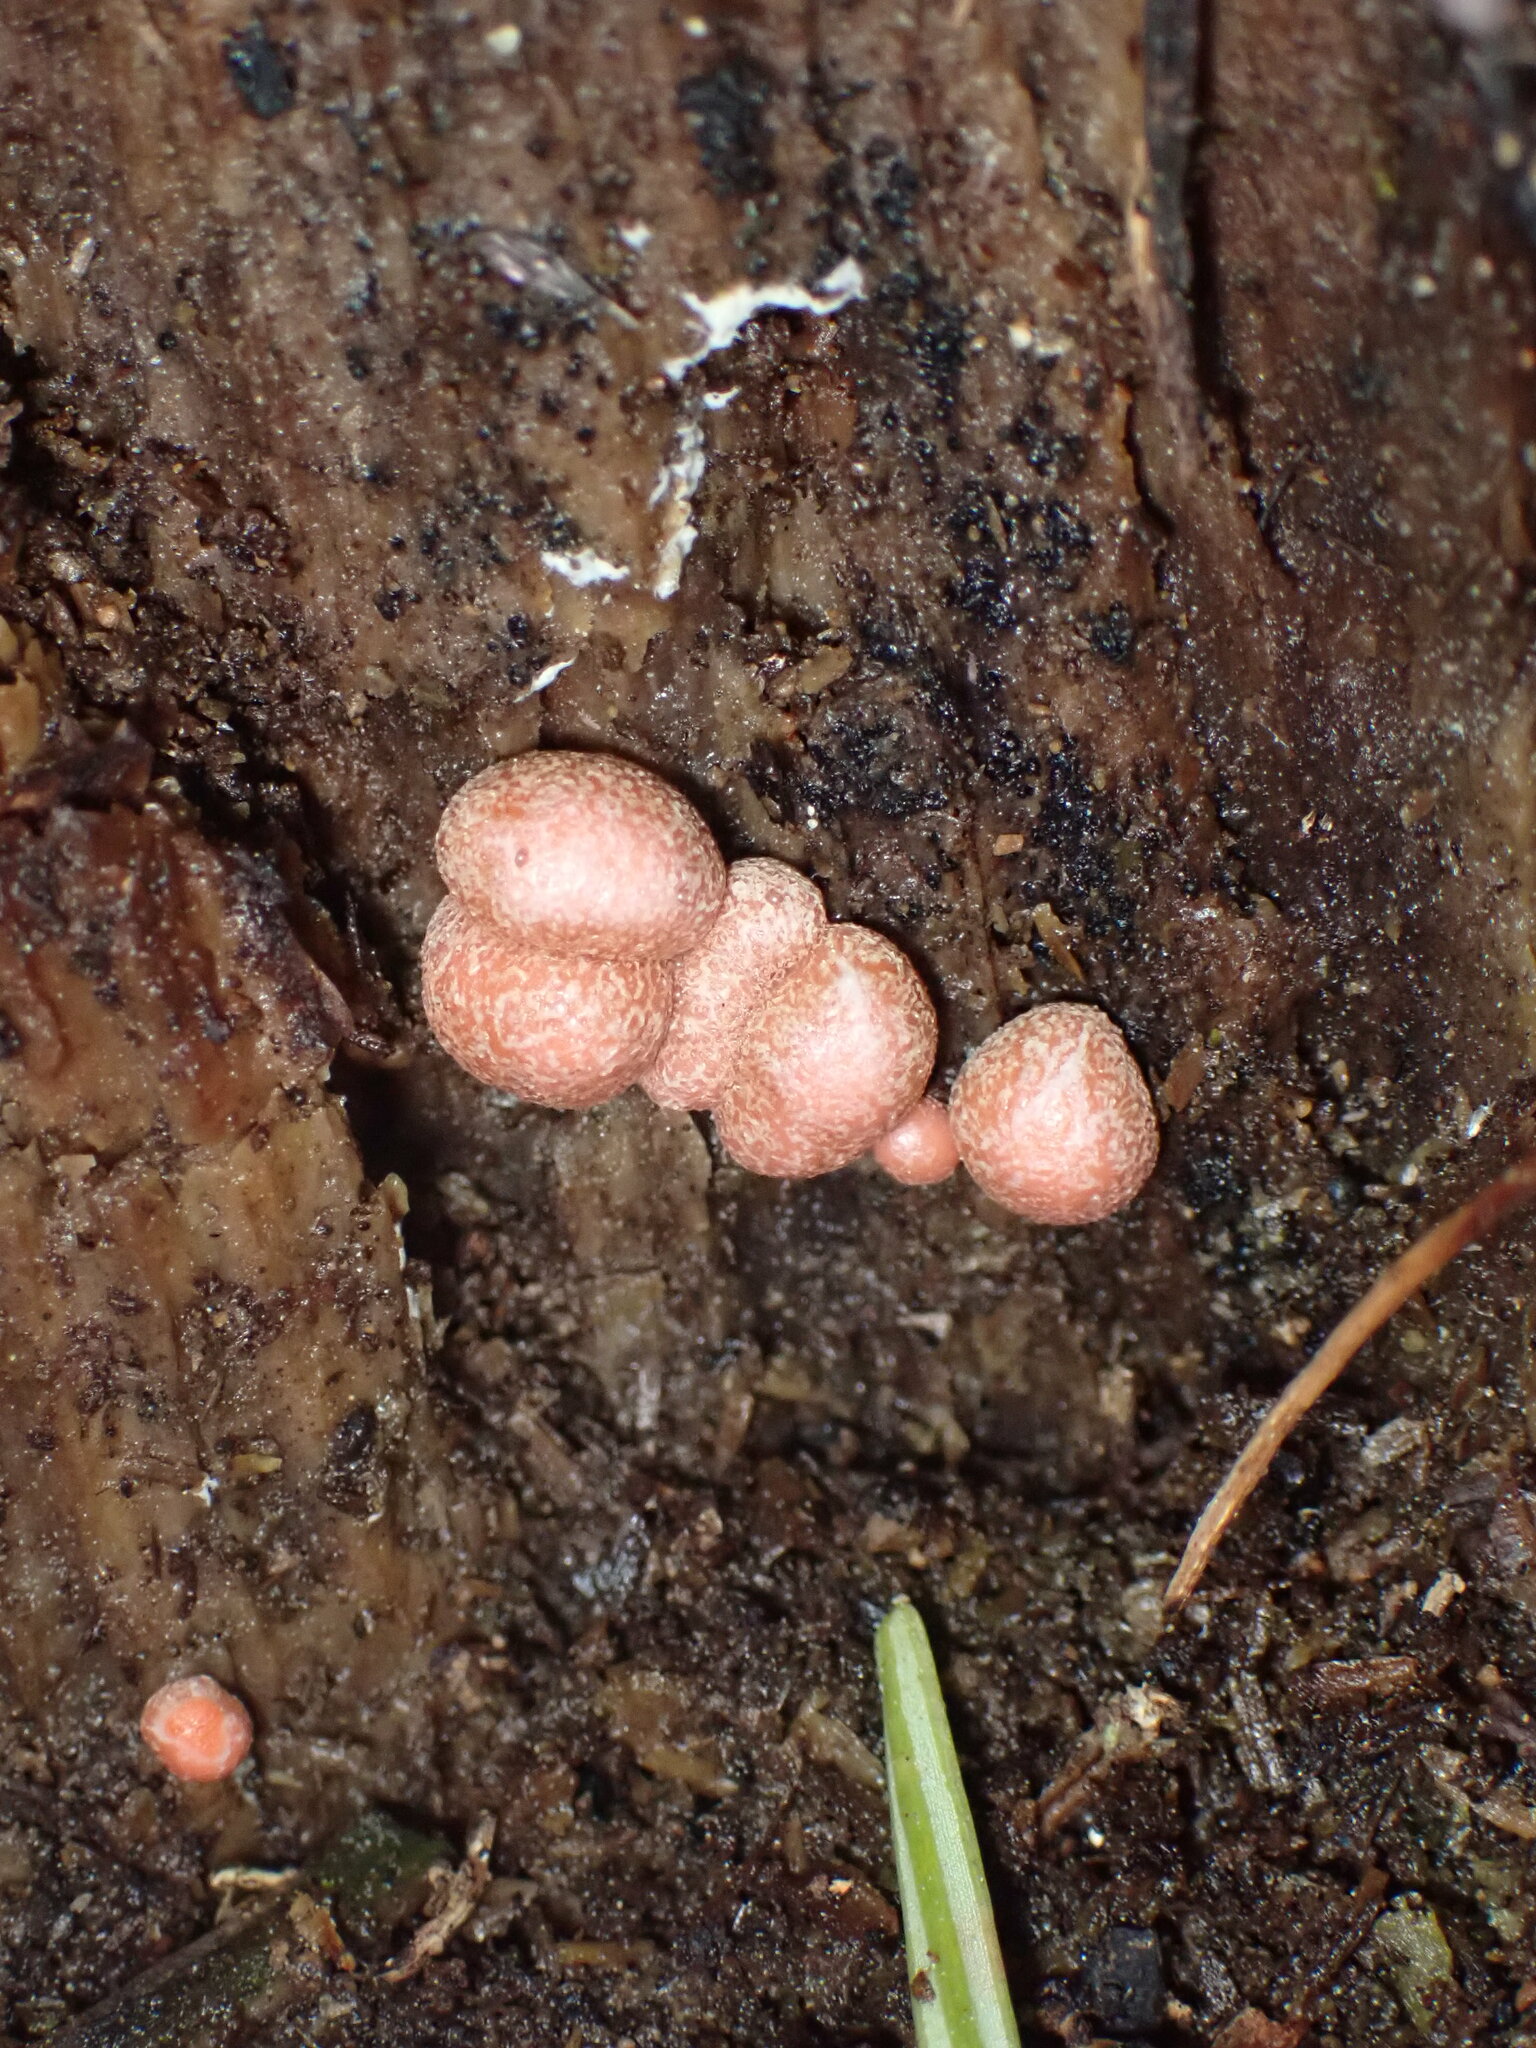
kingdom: Protozoa
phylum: Mycetozoa
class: Myxomycetes
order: Cribrariales
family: Tubiferaceae
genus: Lycogala
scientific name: Lycogala epidendrum
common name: Wolf's milk
